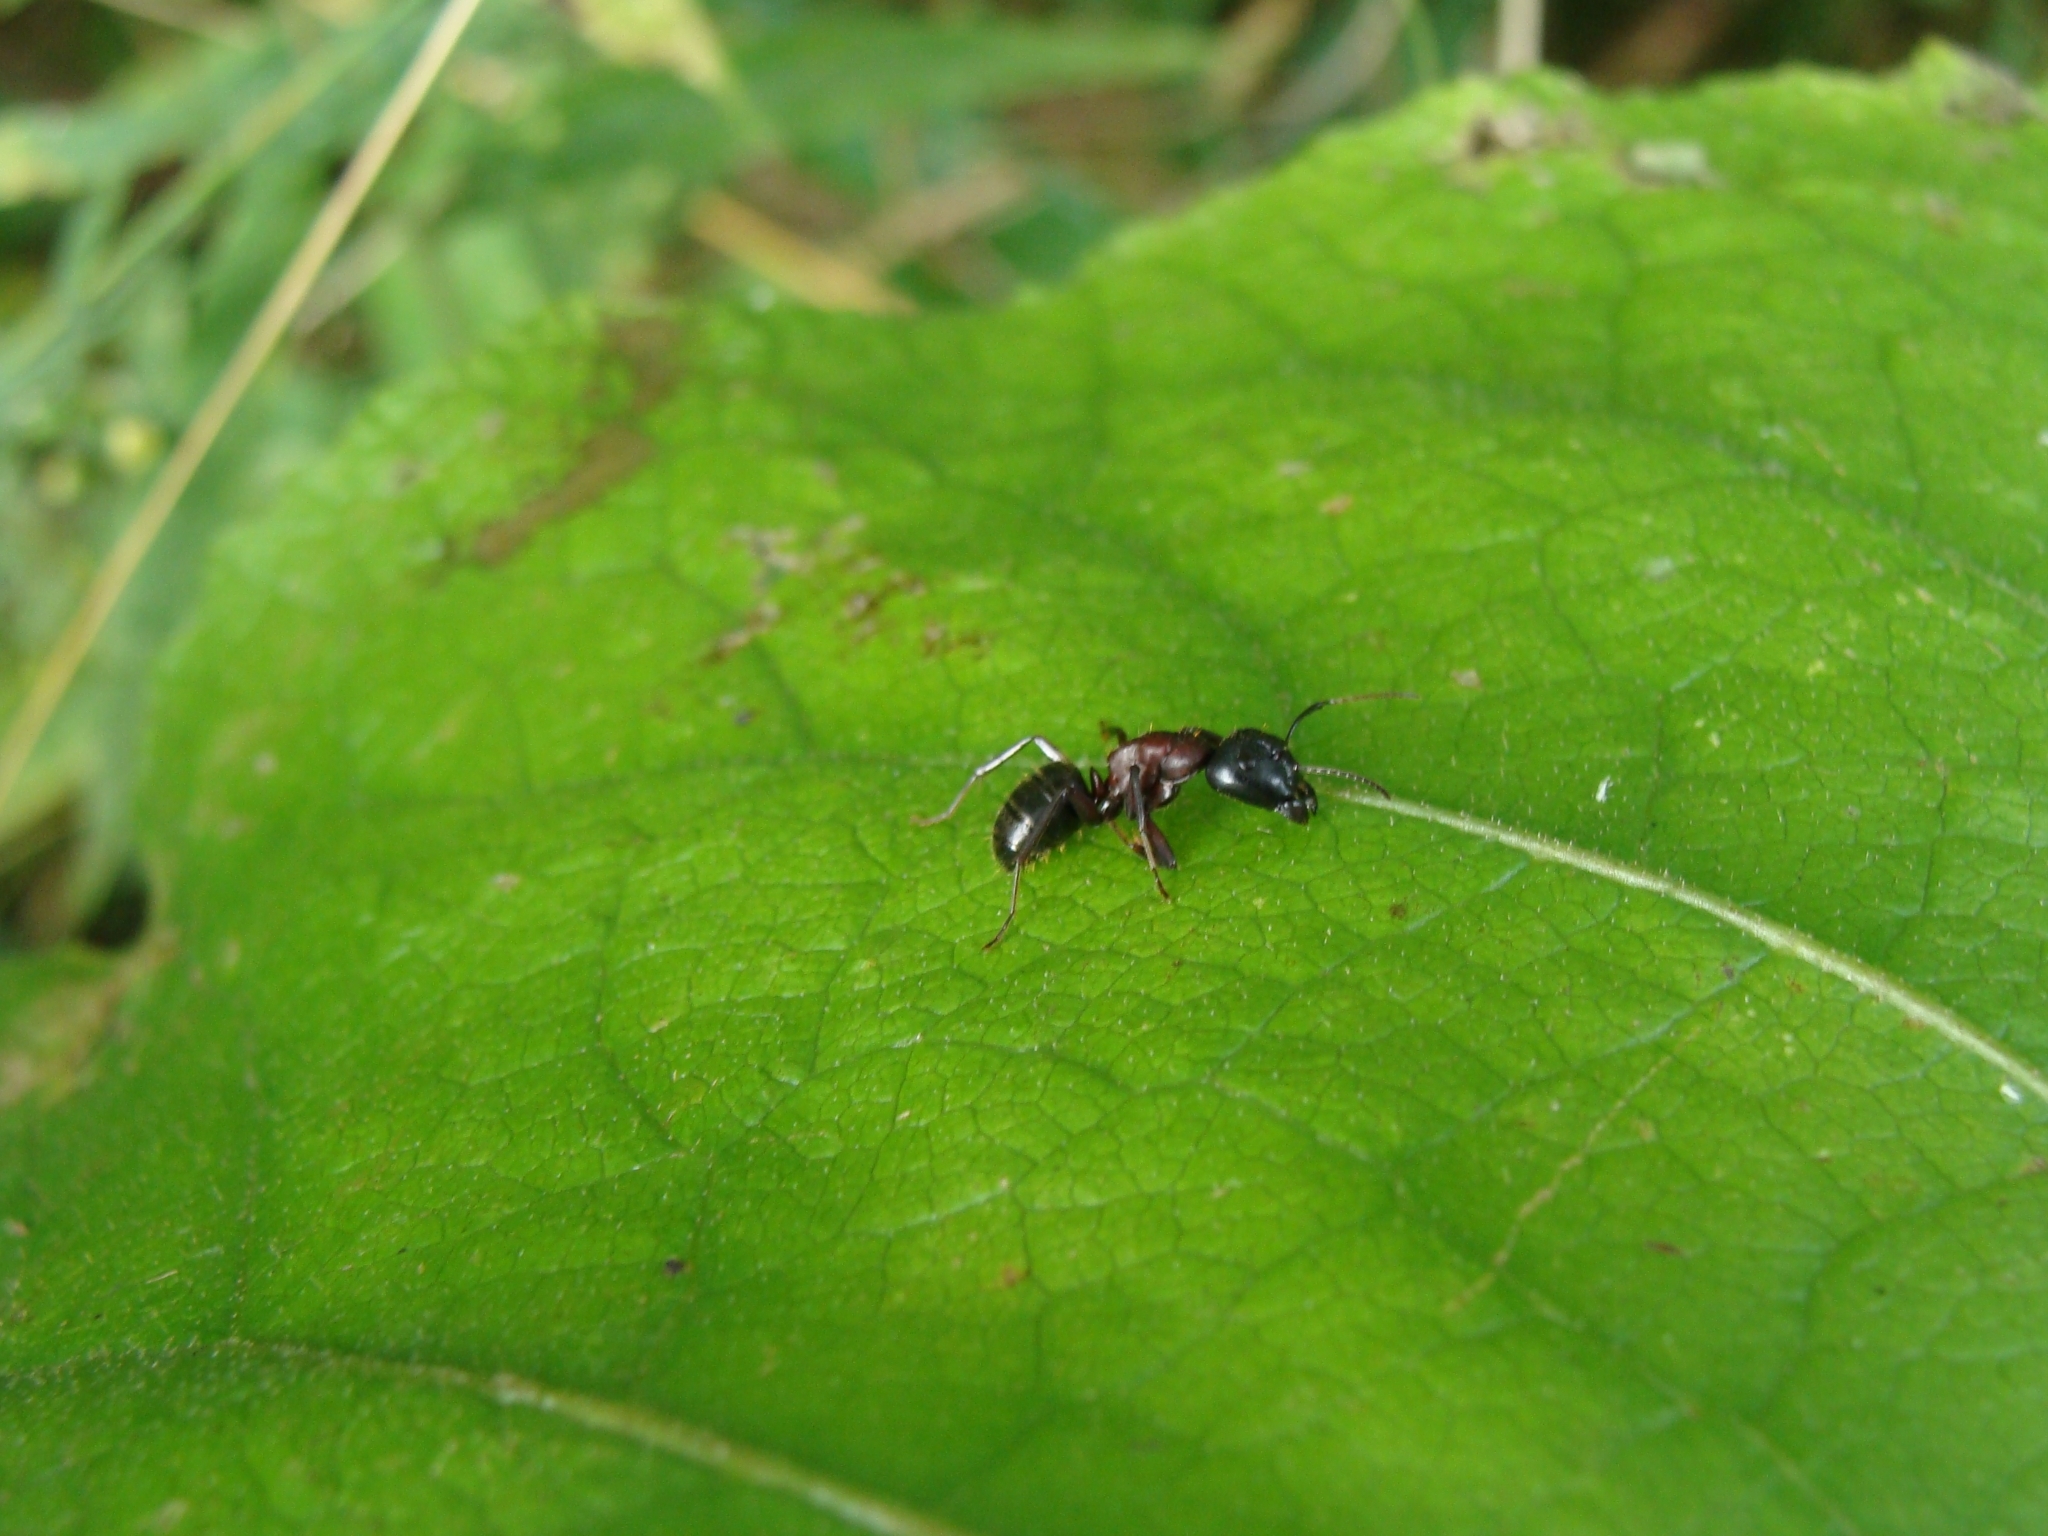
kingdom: Animalia
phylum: Arthropoda
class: Insecta
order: Hymenoptera
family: Formicidae
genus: Camponotus
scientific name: Camponotus novaeboracensis
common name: New york carpenter ant
